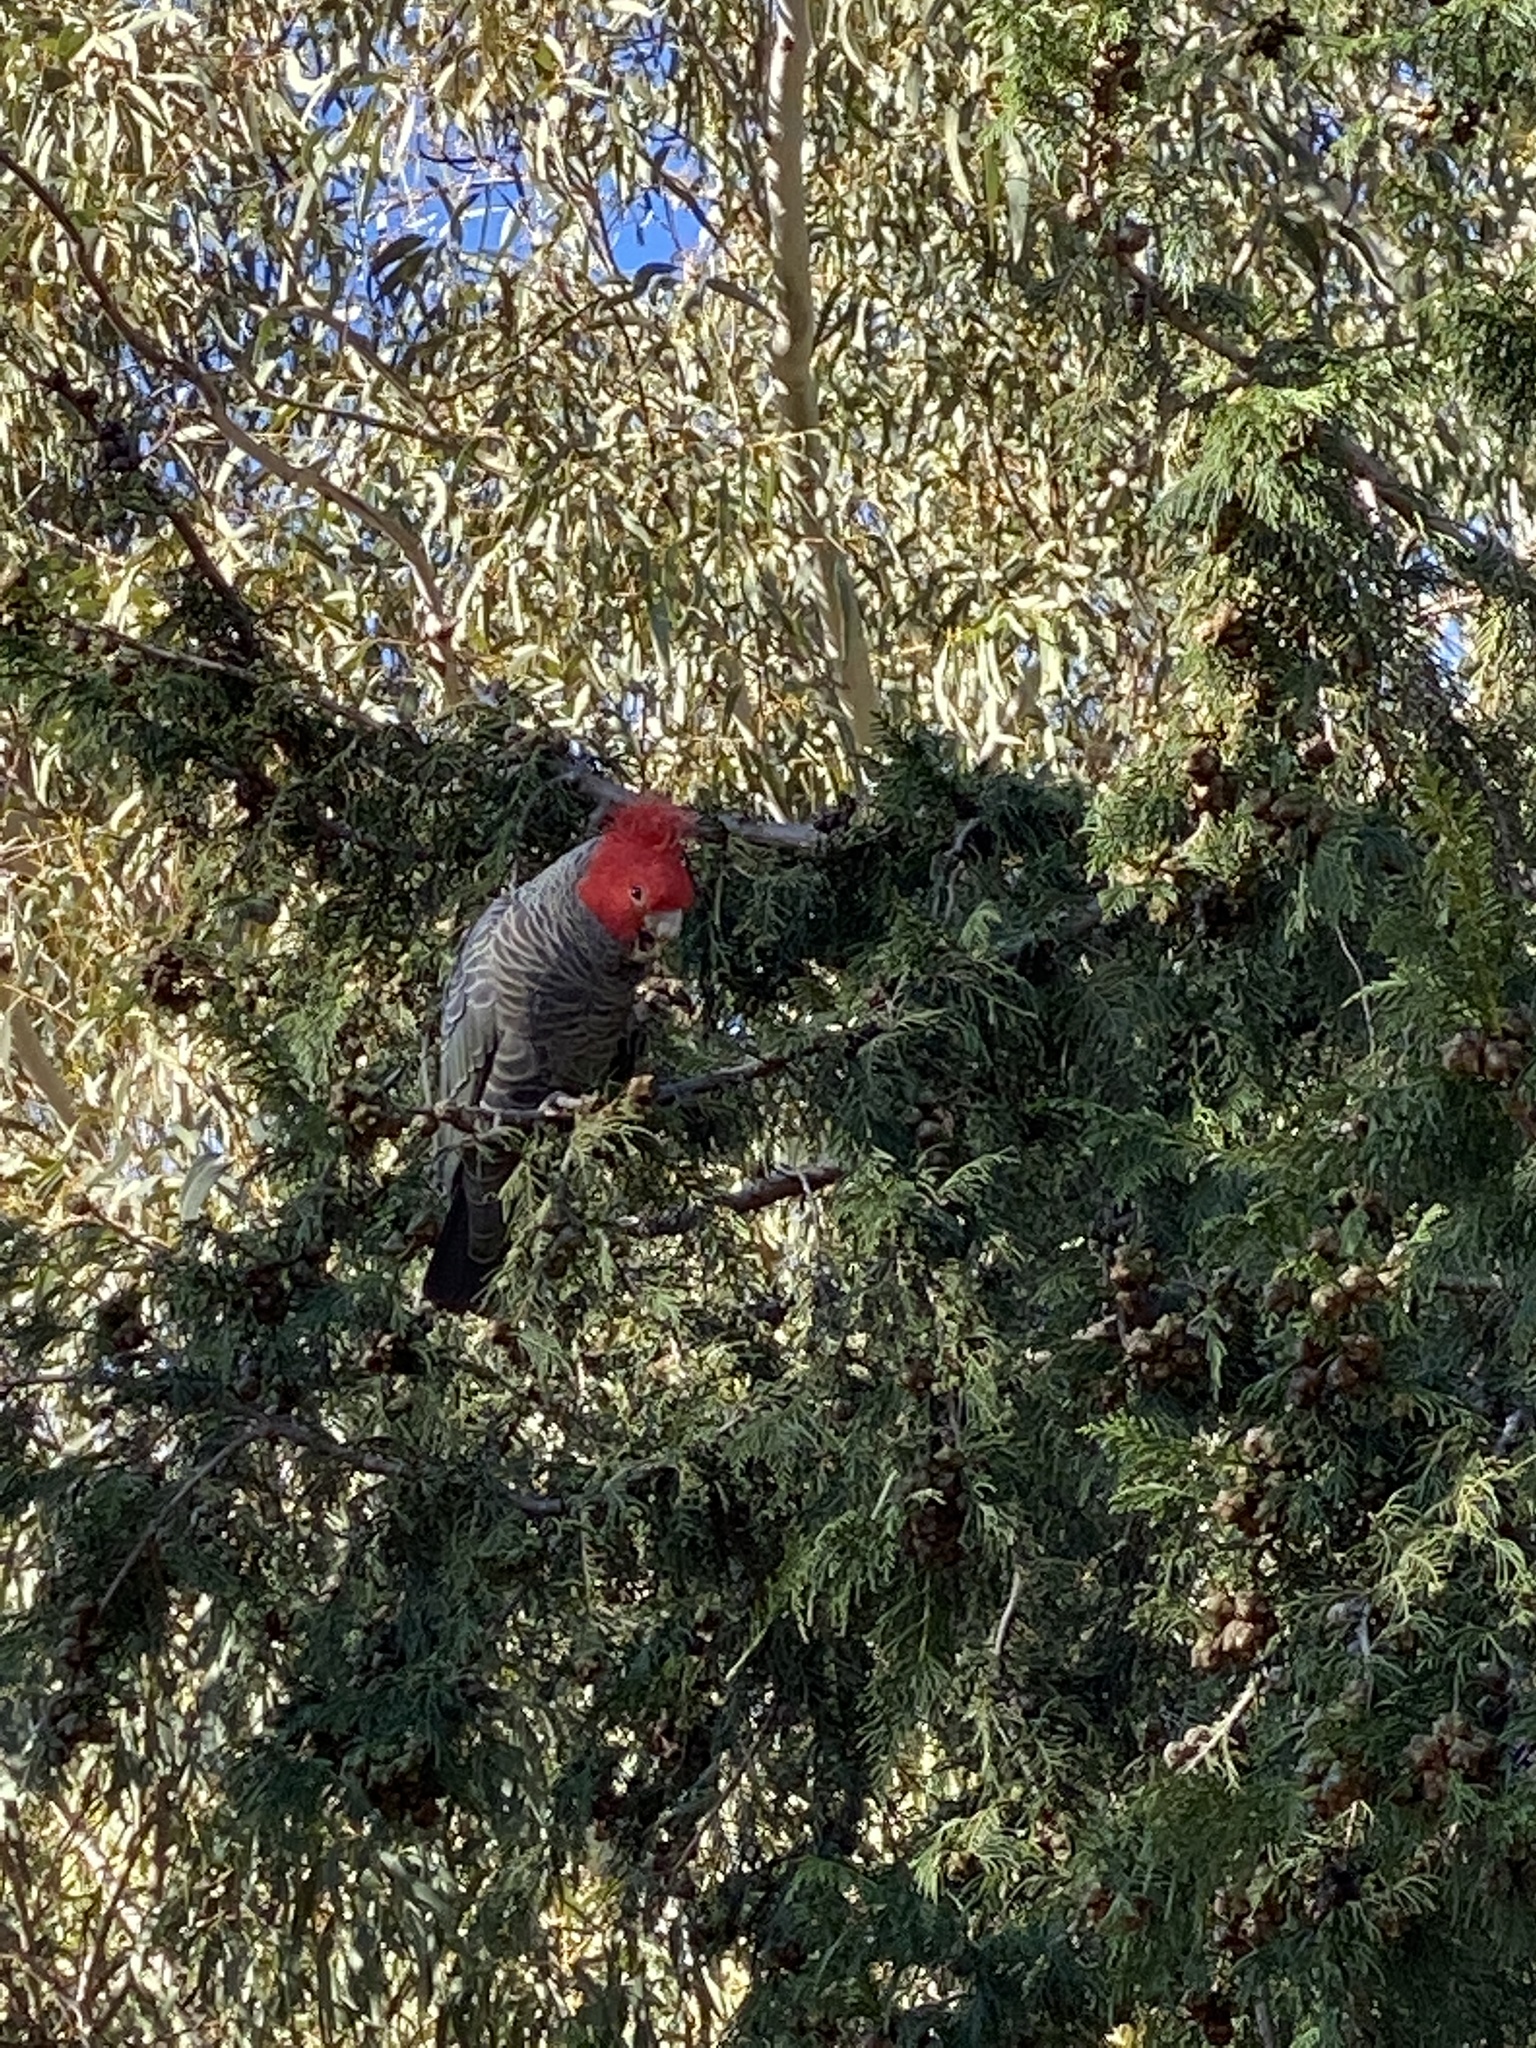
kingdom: Animalia
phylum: Chordata
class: Aves
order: Psittaciformes
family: Psittacidae
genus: Callocephalon
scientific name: Callocephalon fimbriatum
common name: Gang-gang cockatoo
